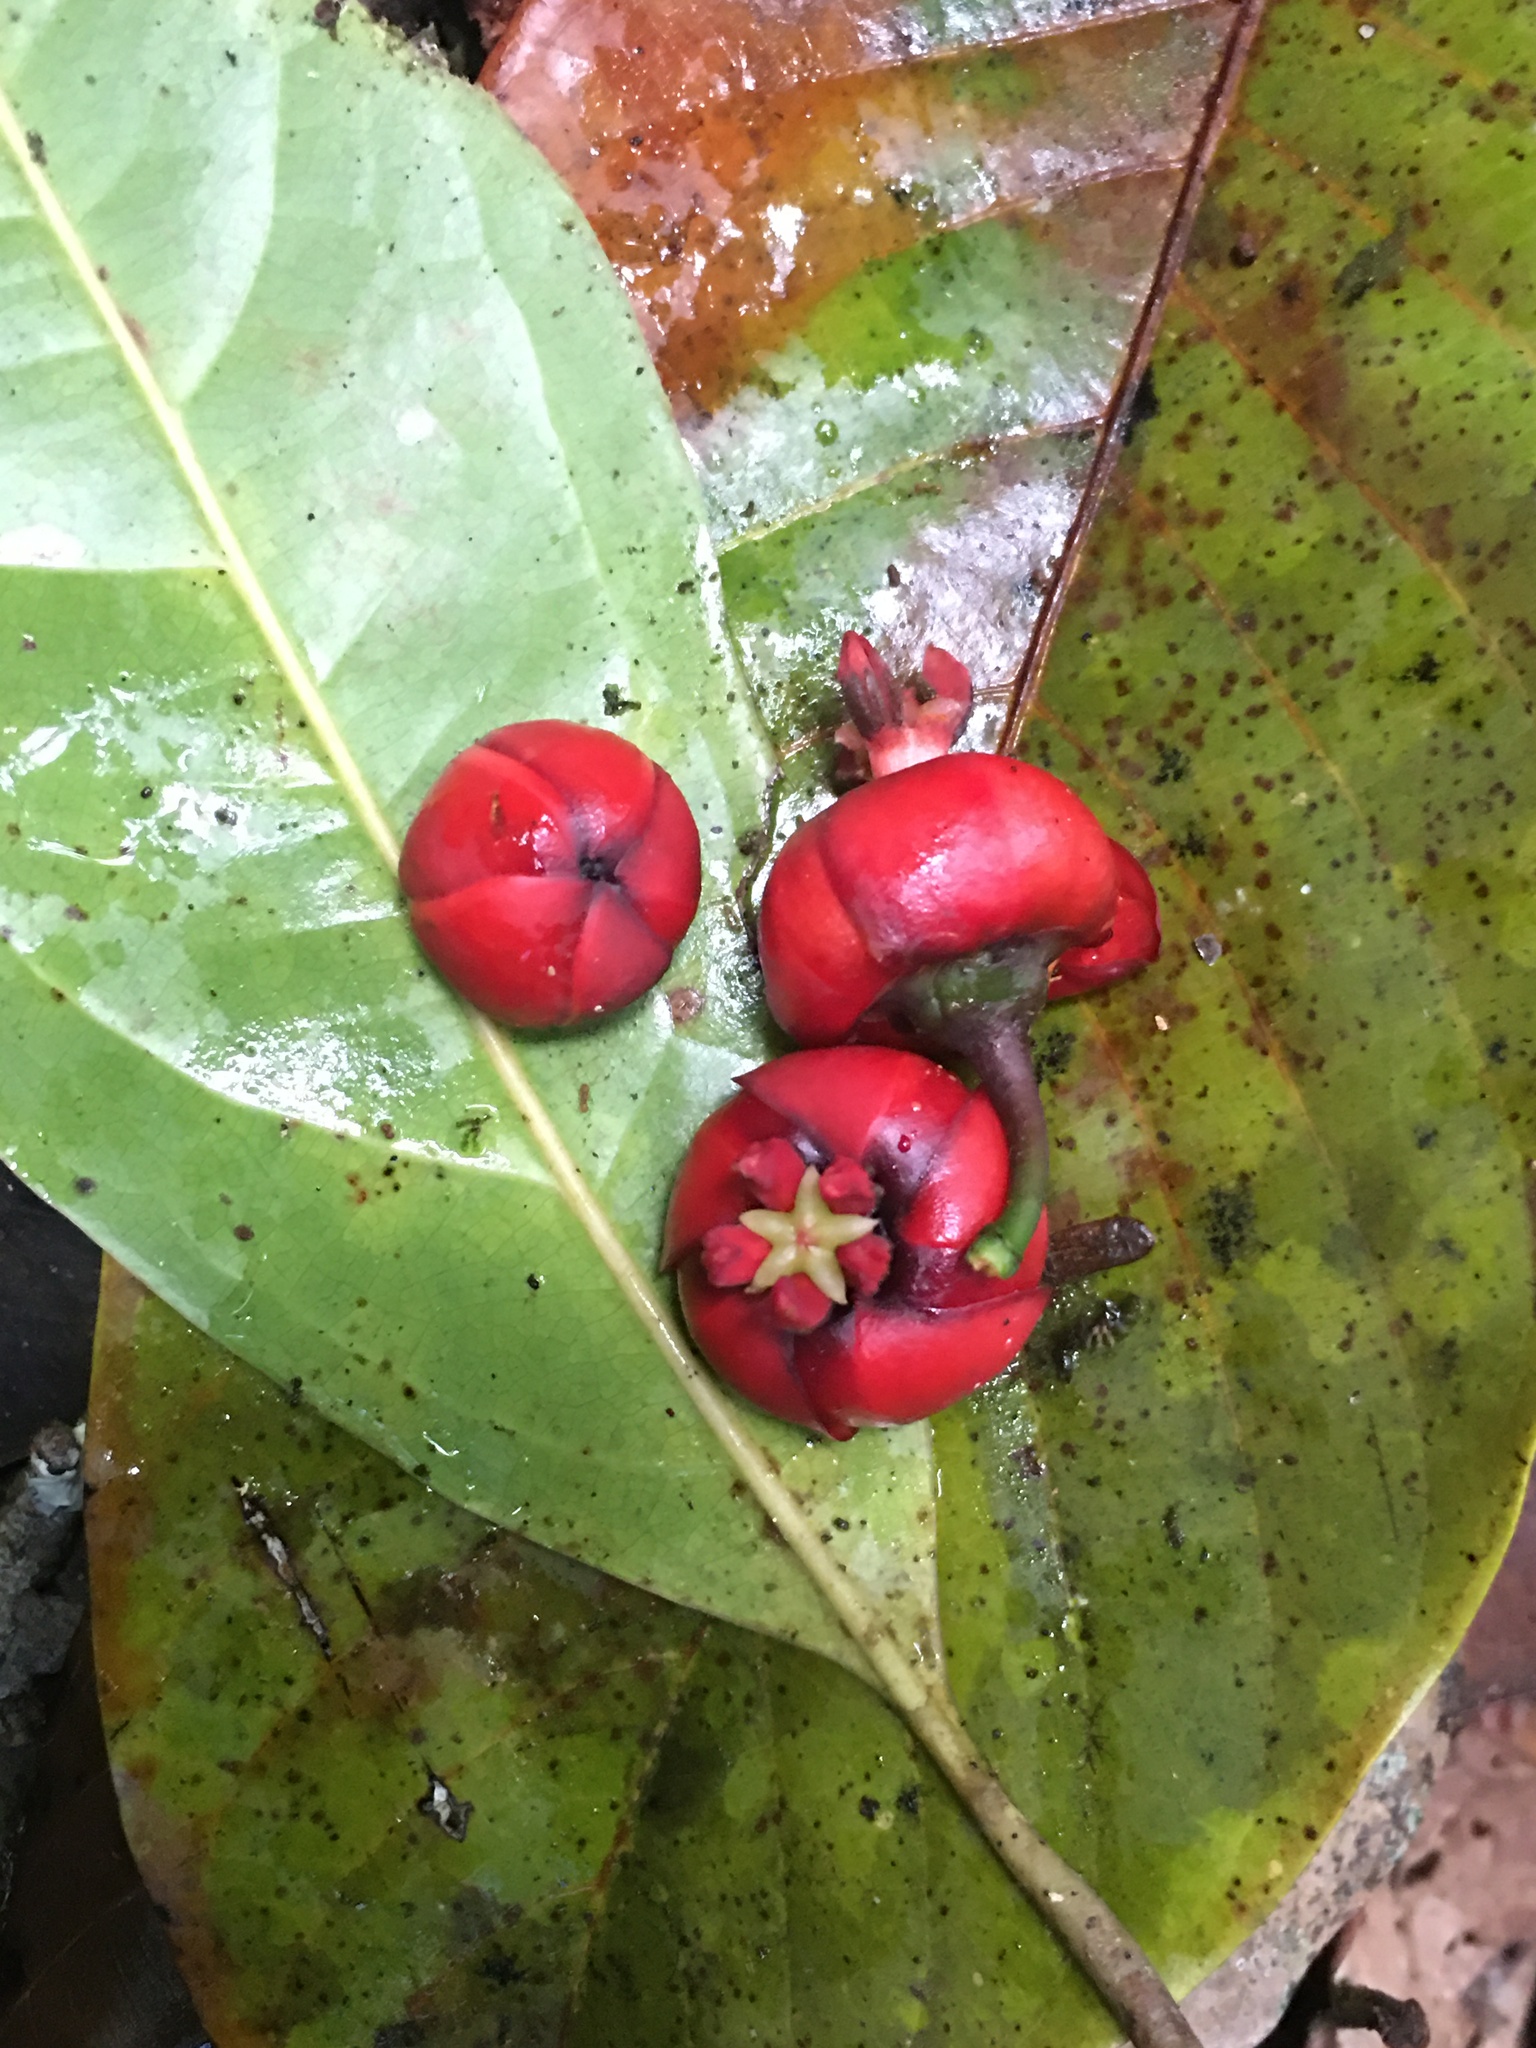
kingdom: Plantae
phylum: Tracheophyta
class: Magnoliopsida
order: Malpighiales
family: Clusiaceae
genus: Symphonia
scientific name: Symphonia globulifera
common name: Boarwood
